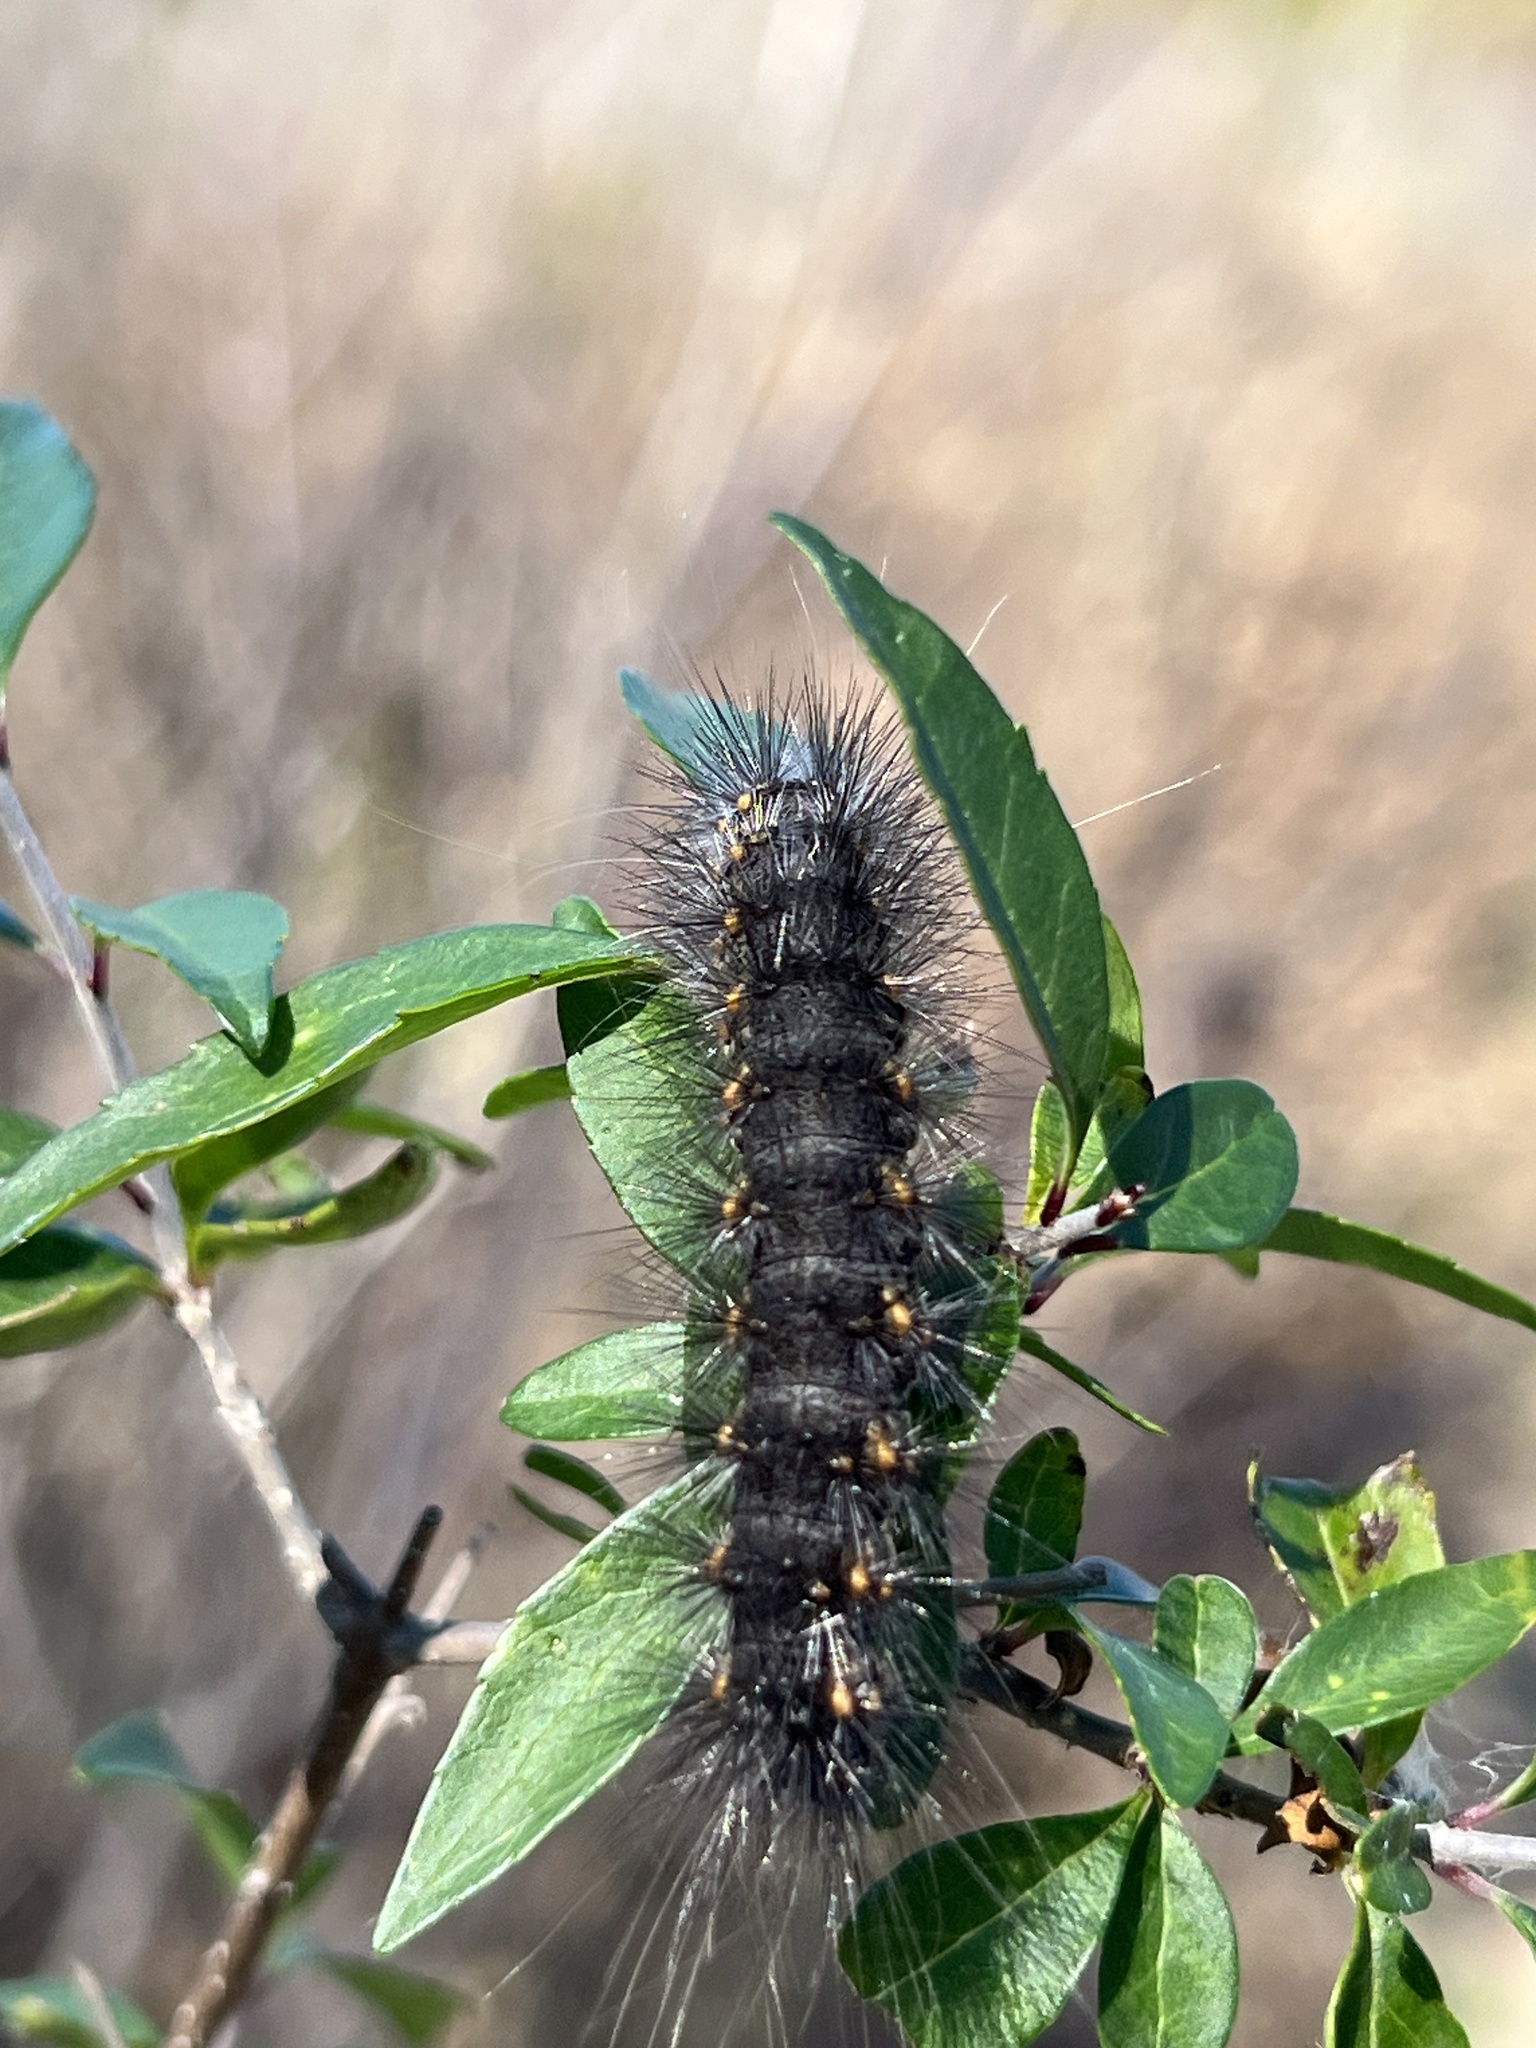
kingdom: Animalia
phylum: Arthropoda
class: Insecta
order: Lepidoptera
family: Erebidae
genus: Estigmene
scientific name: Estigmene acrea
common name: Salt marsh moth
